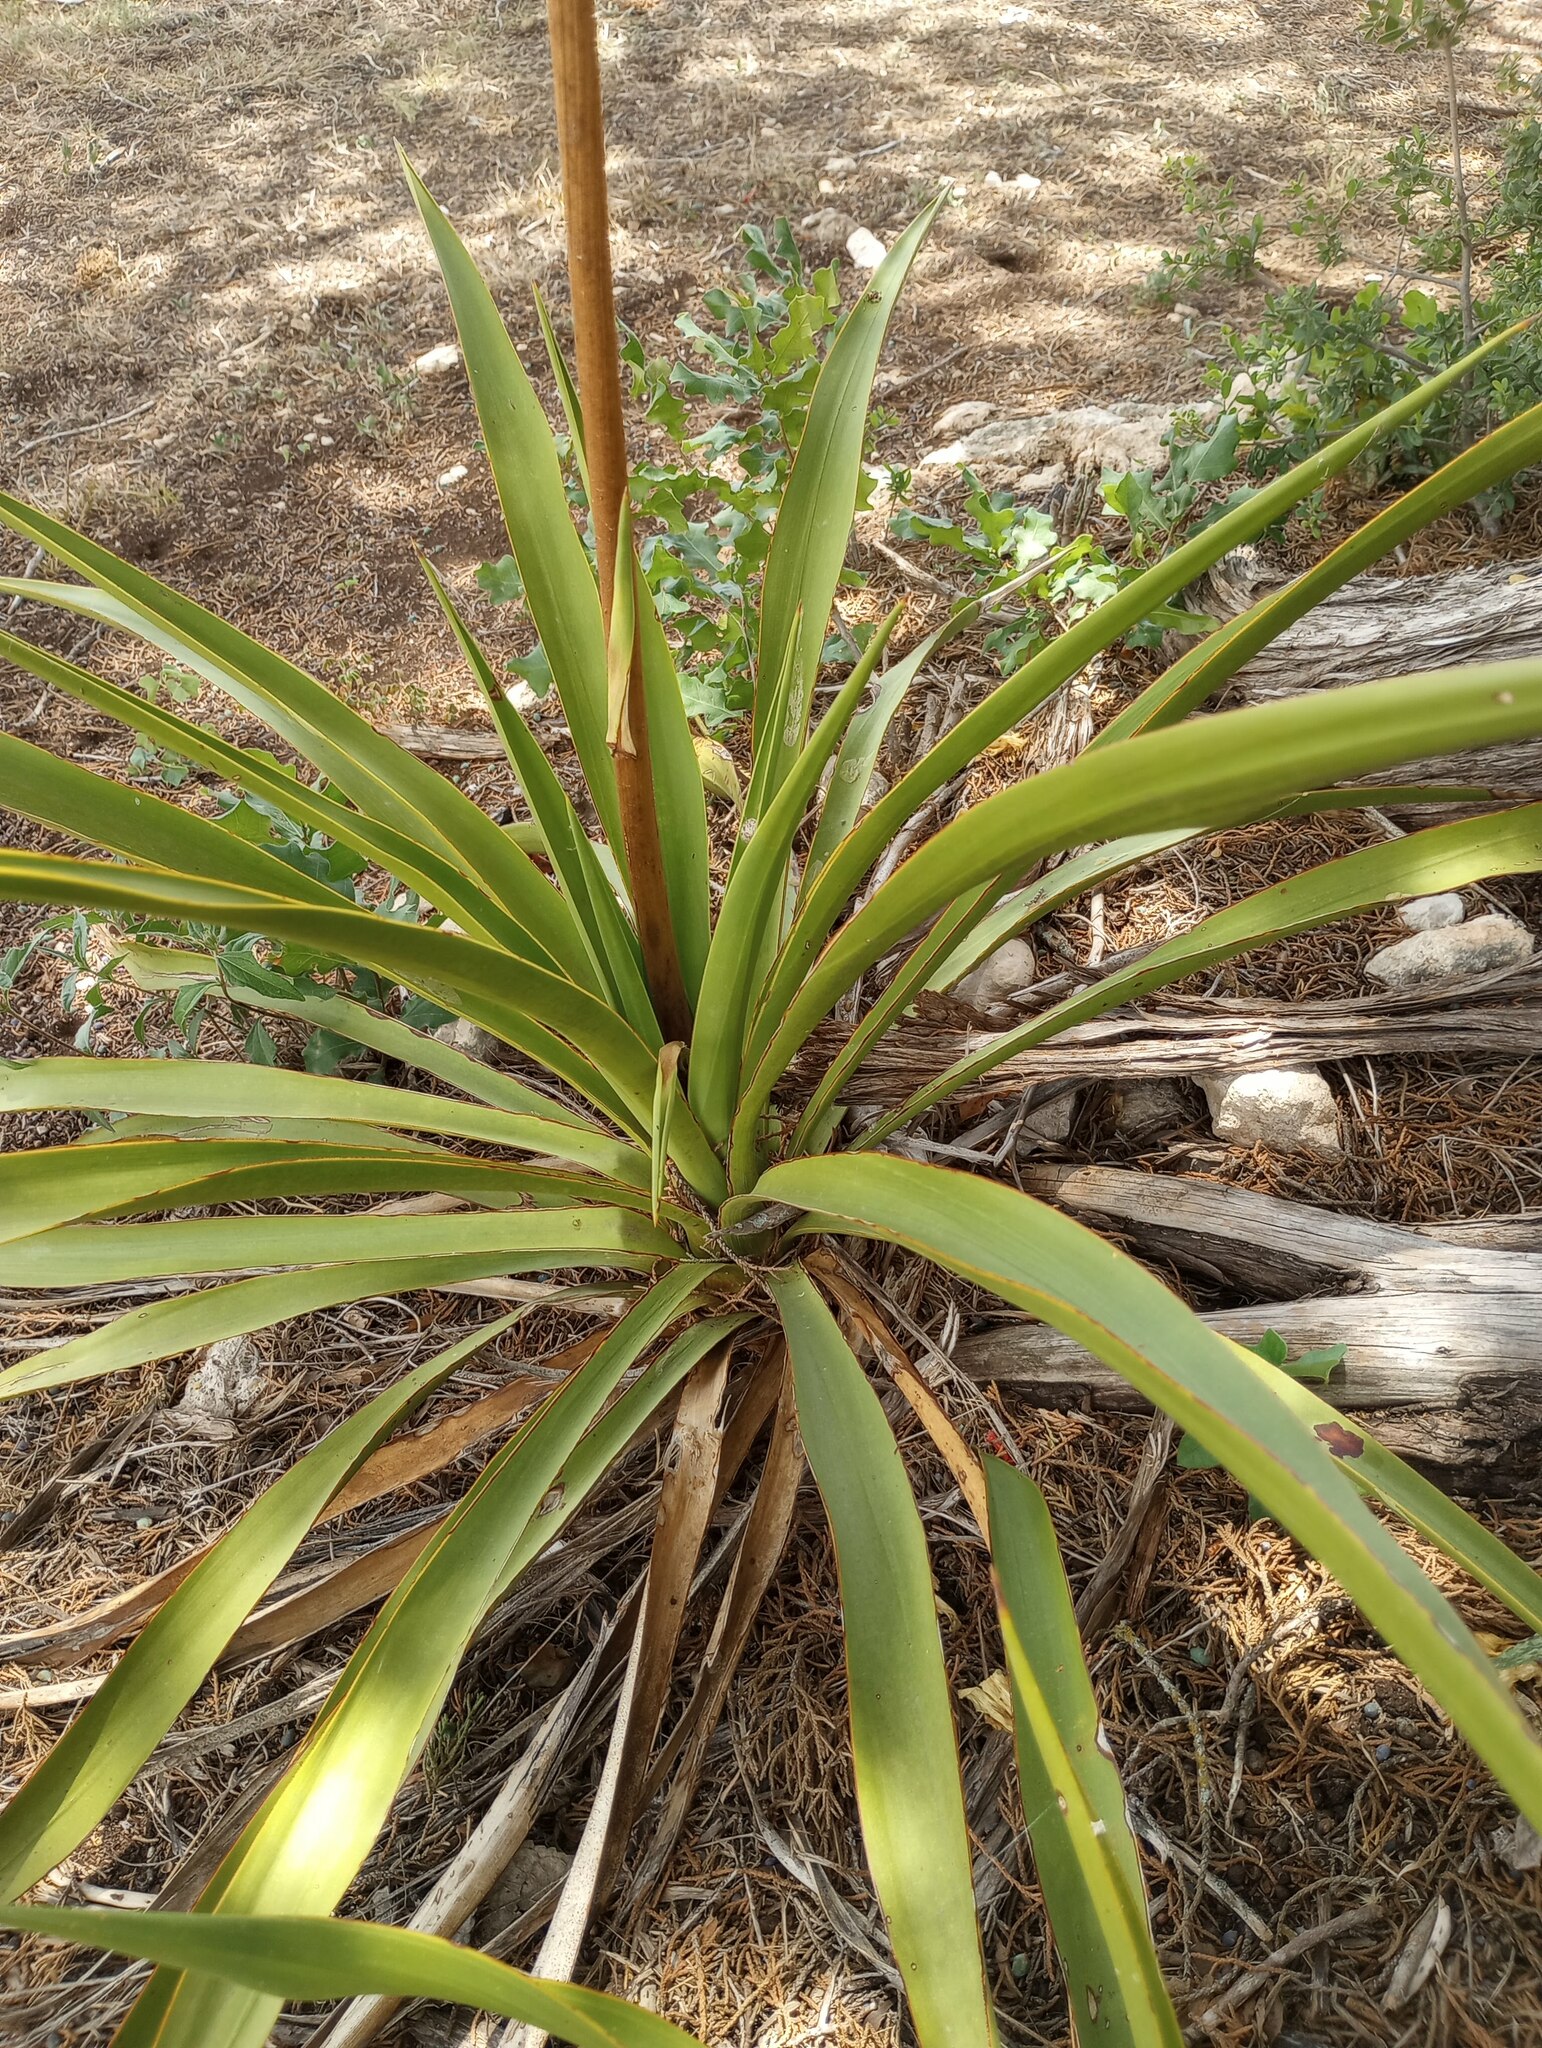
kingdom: Plantae
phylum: Tracheophyta
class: Liliopsida
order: Asparagales
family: Asparagaceae
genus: Yucca
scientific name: Yucca rupicola
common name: Twisted-leaf spanish-dagger
